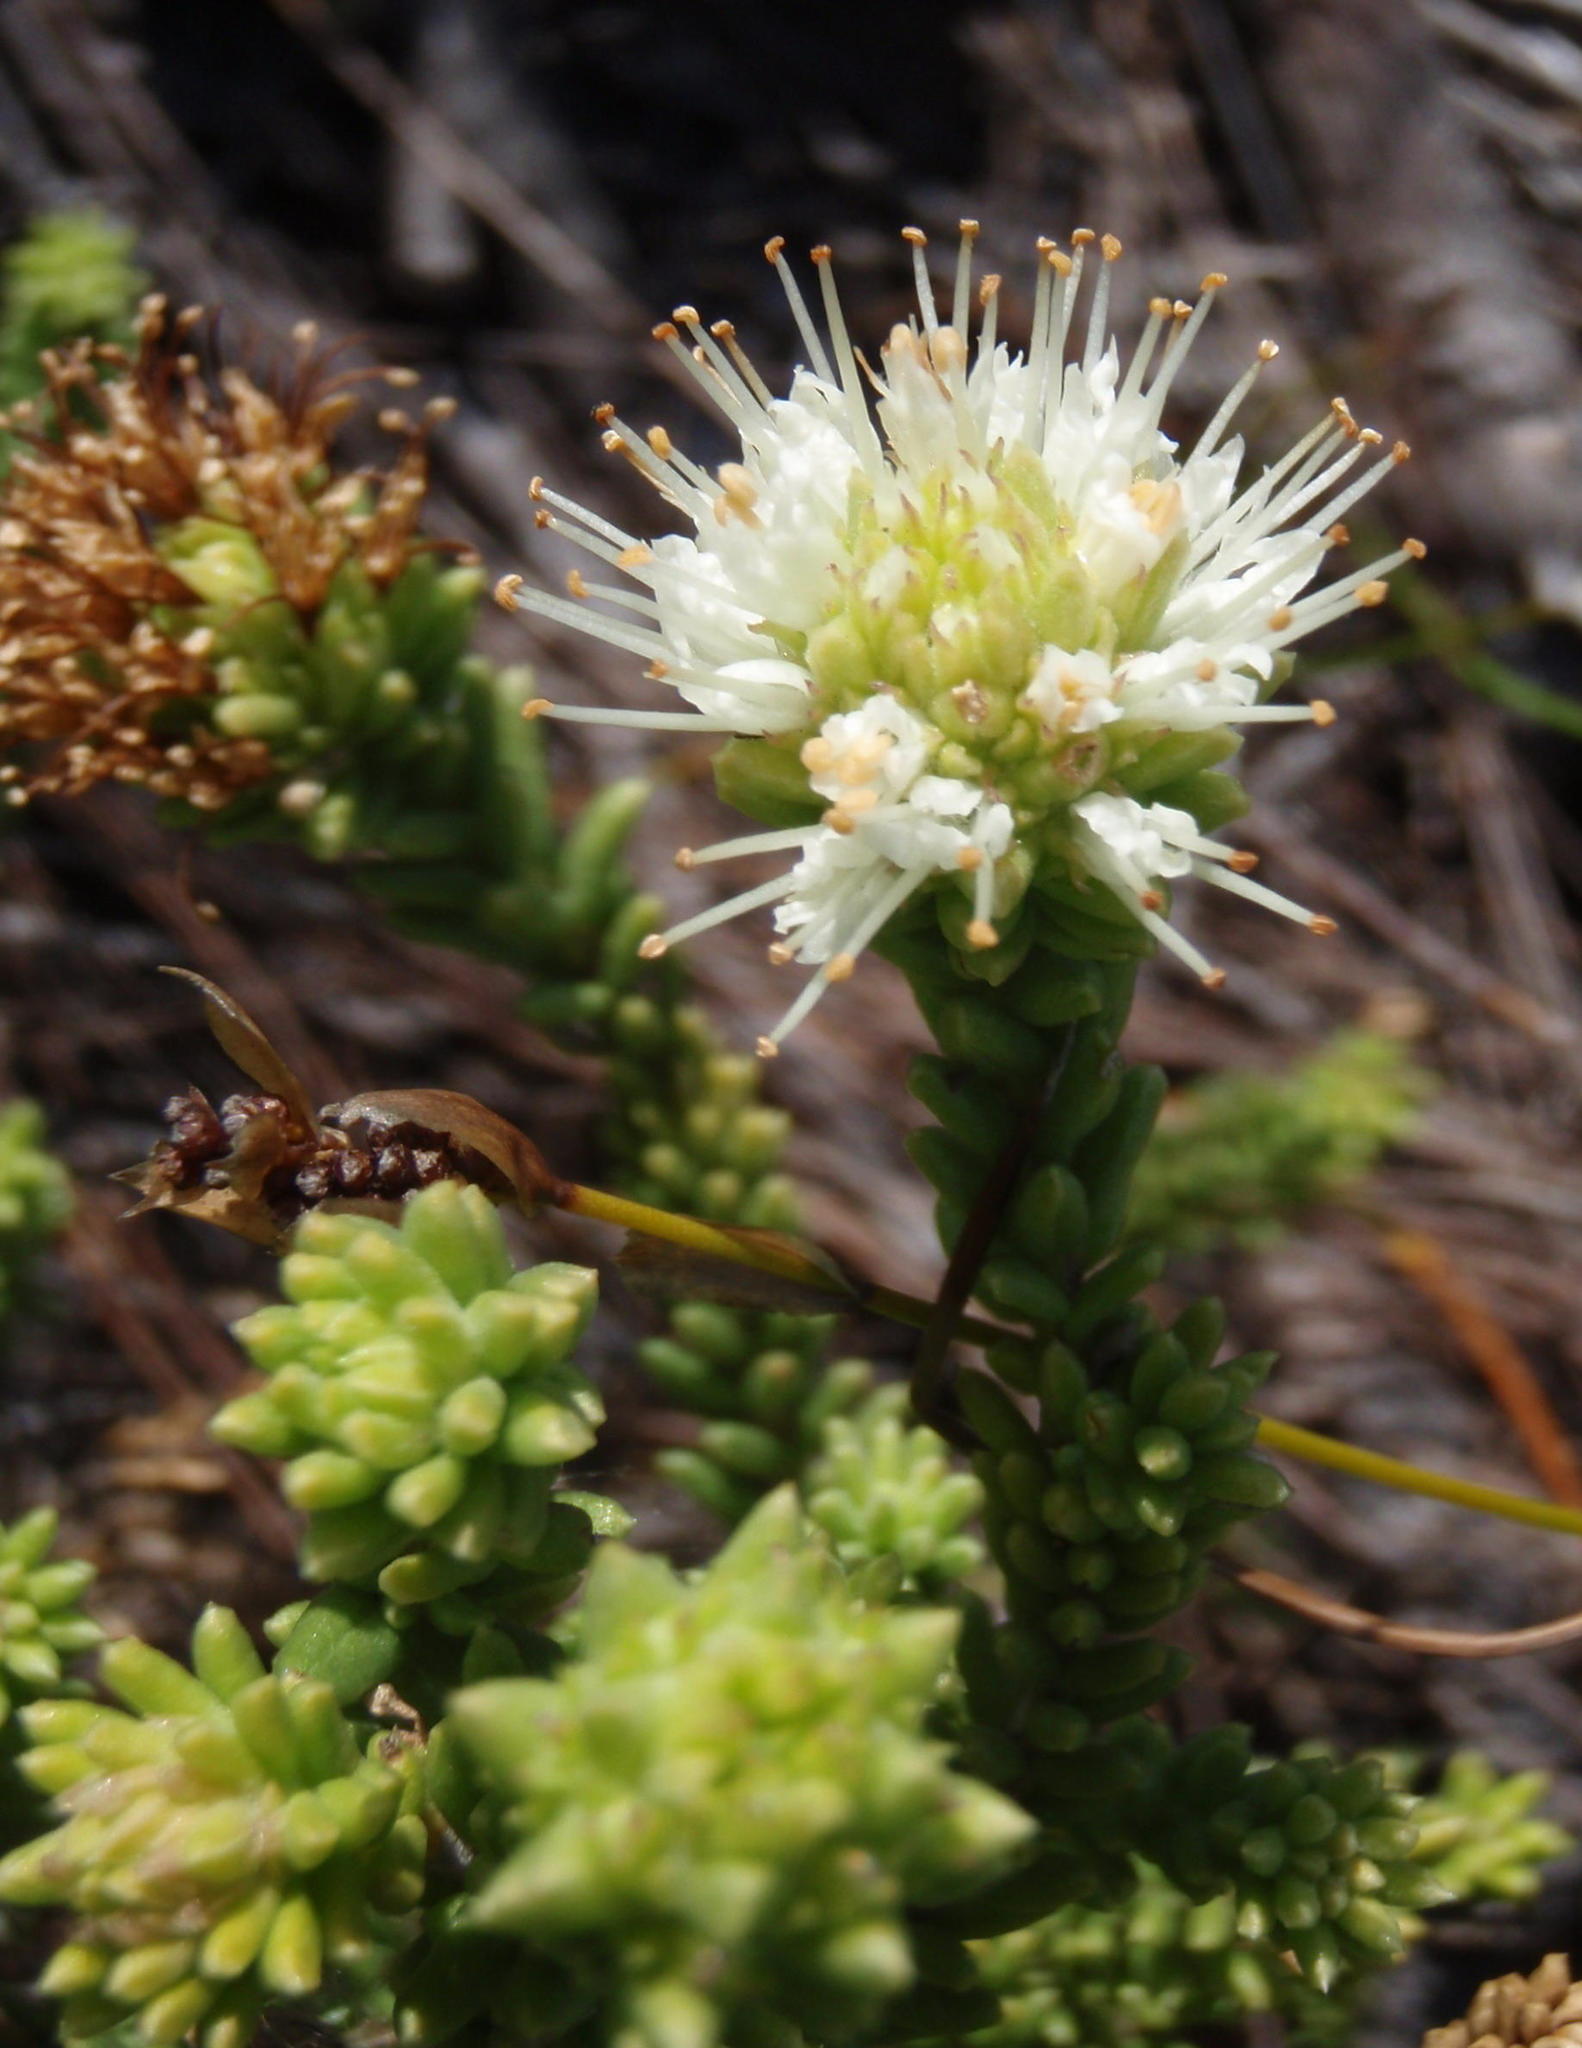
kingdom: Plantae
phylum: Tracheophyta
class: Magnoliopsida
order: Lamiales
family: Stilbaceae
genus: Campylostachys
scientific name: Campylostachys cernua
